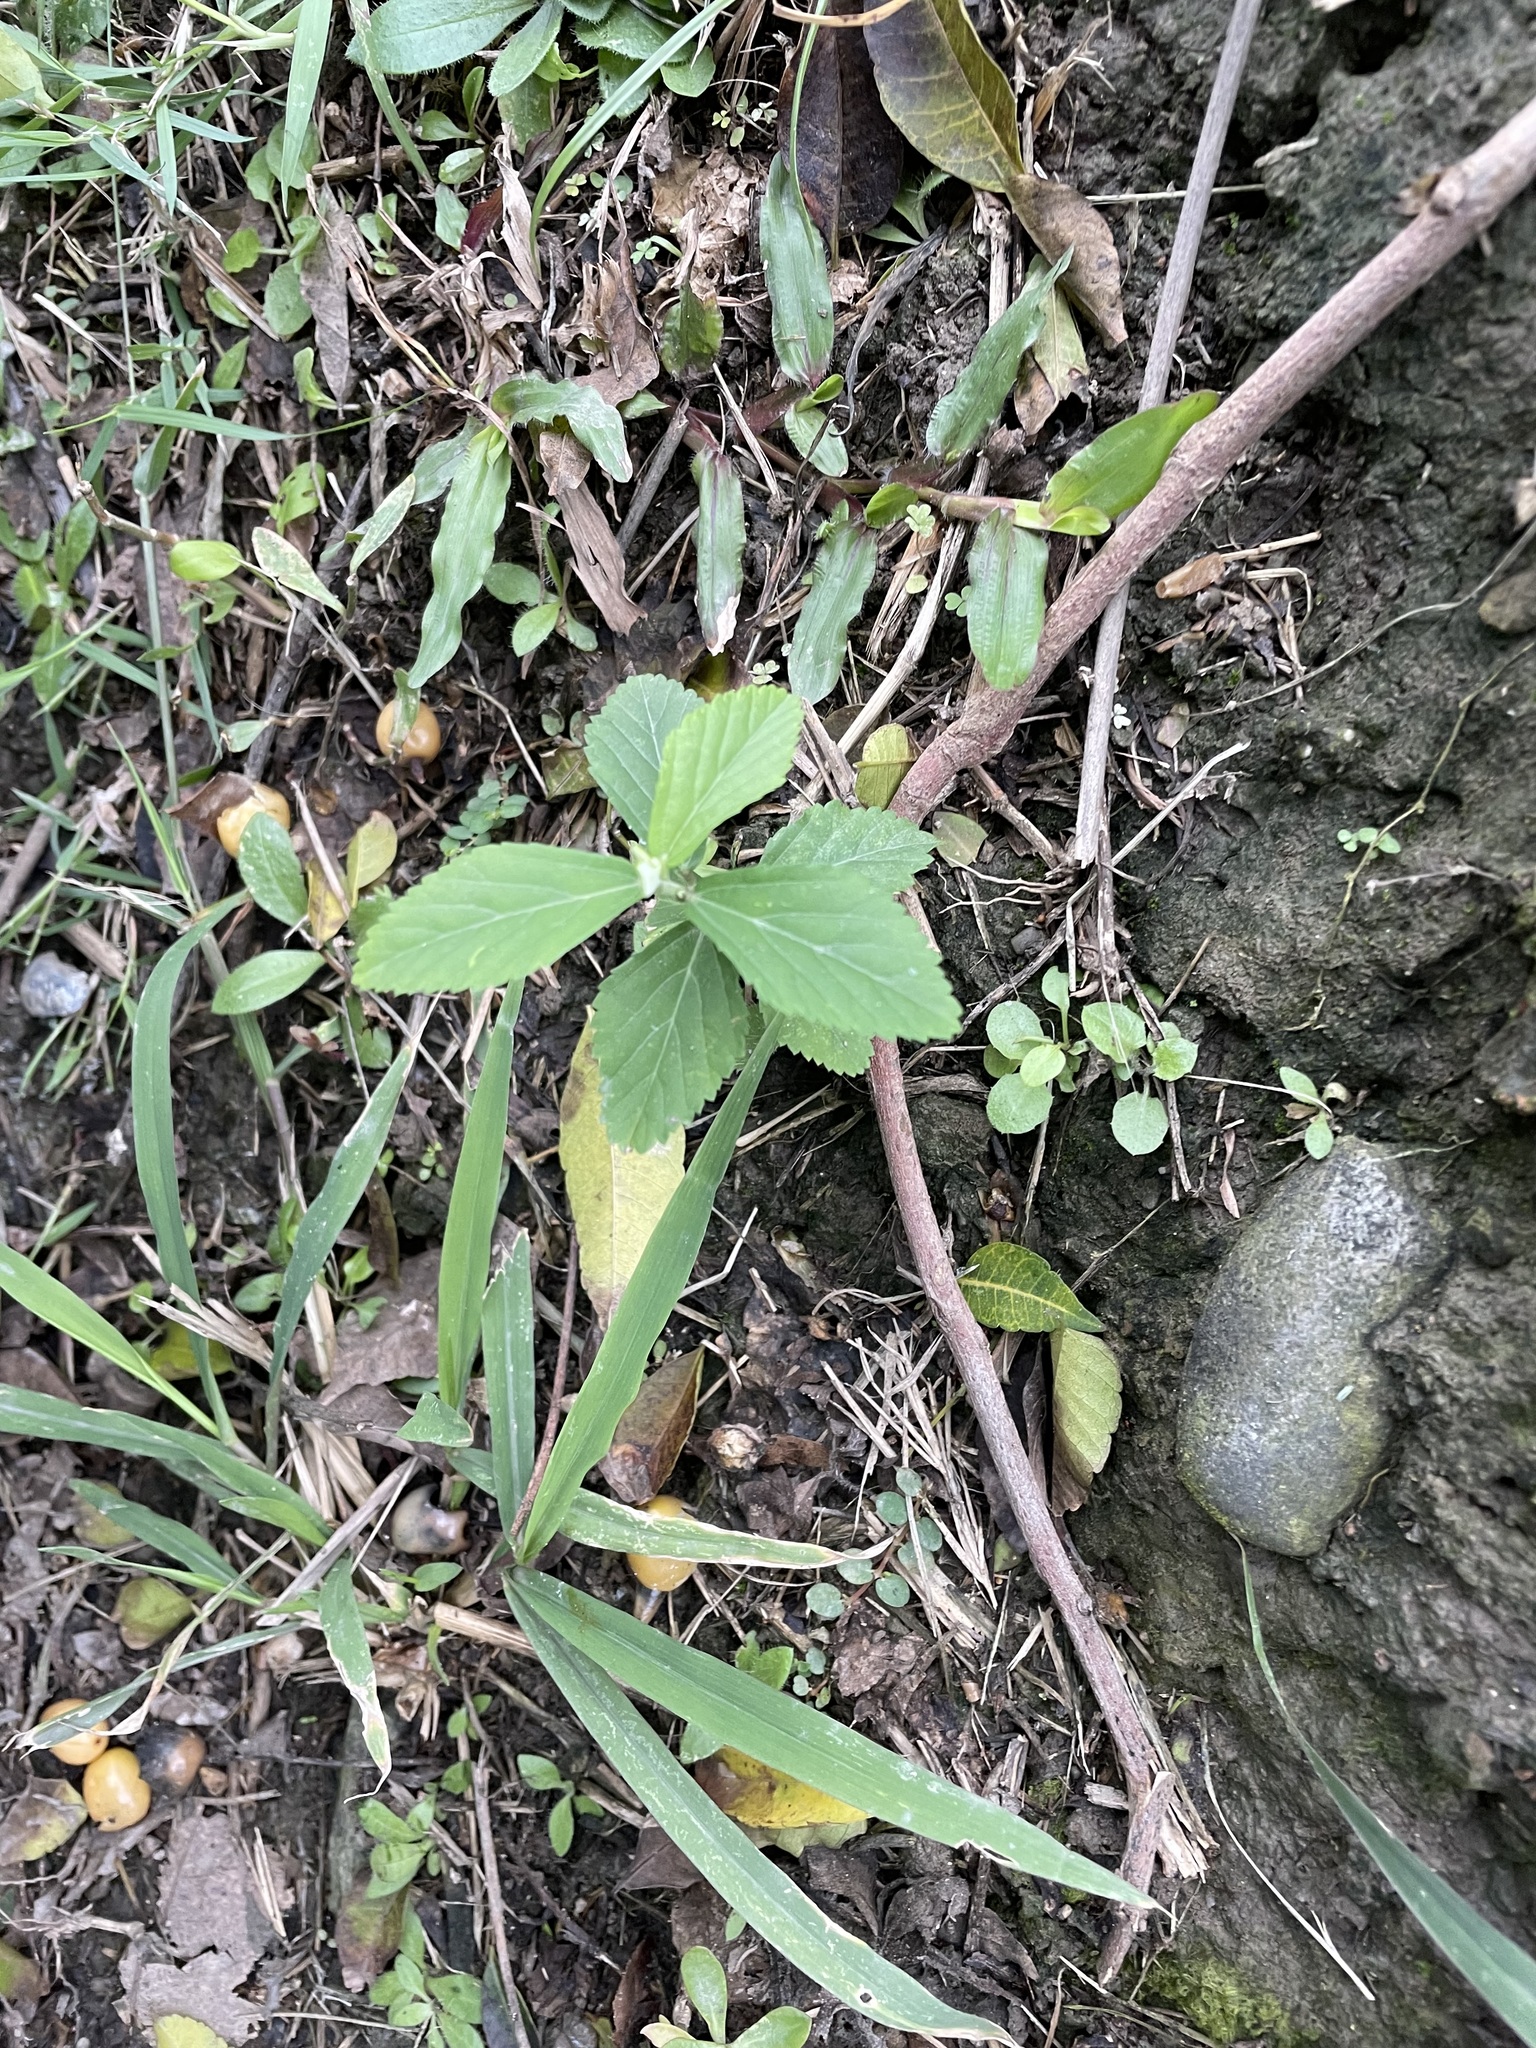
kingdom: Plantae
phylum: Tracheophyta
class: Magnoliopsida
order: Malvales
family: Malvaceae
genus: Sida
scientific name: Sida rhombifolia
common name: Queensland-hemp
